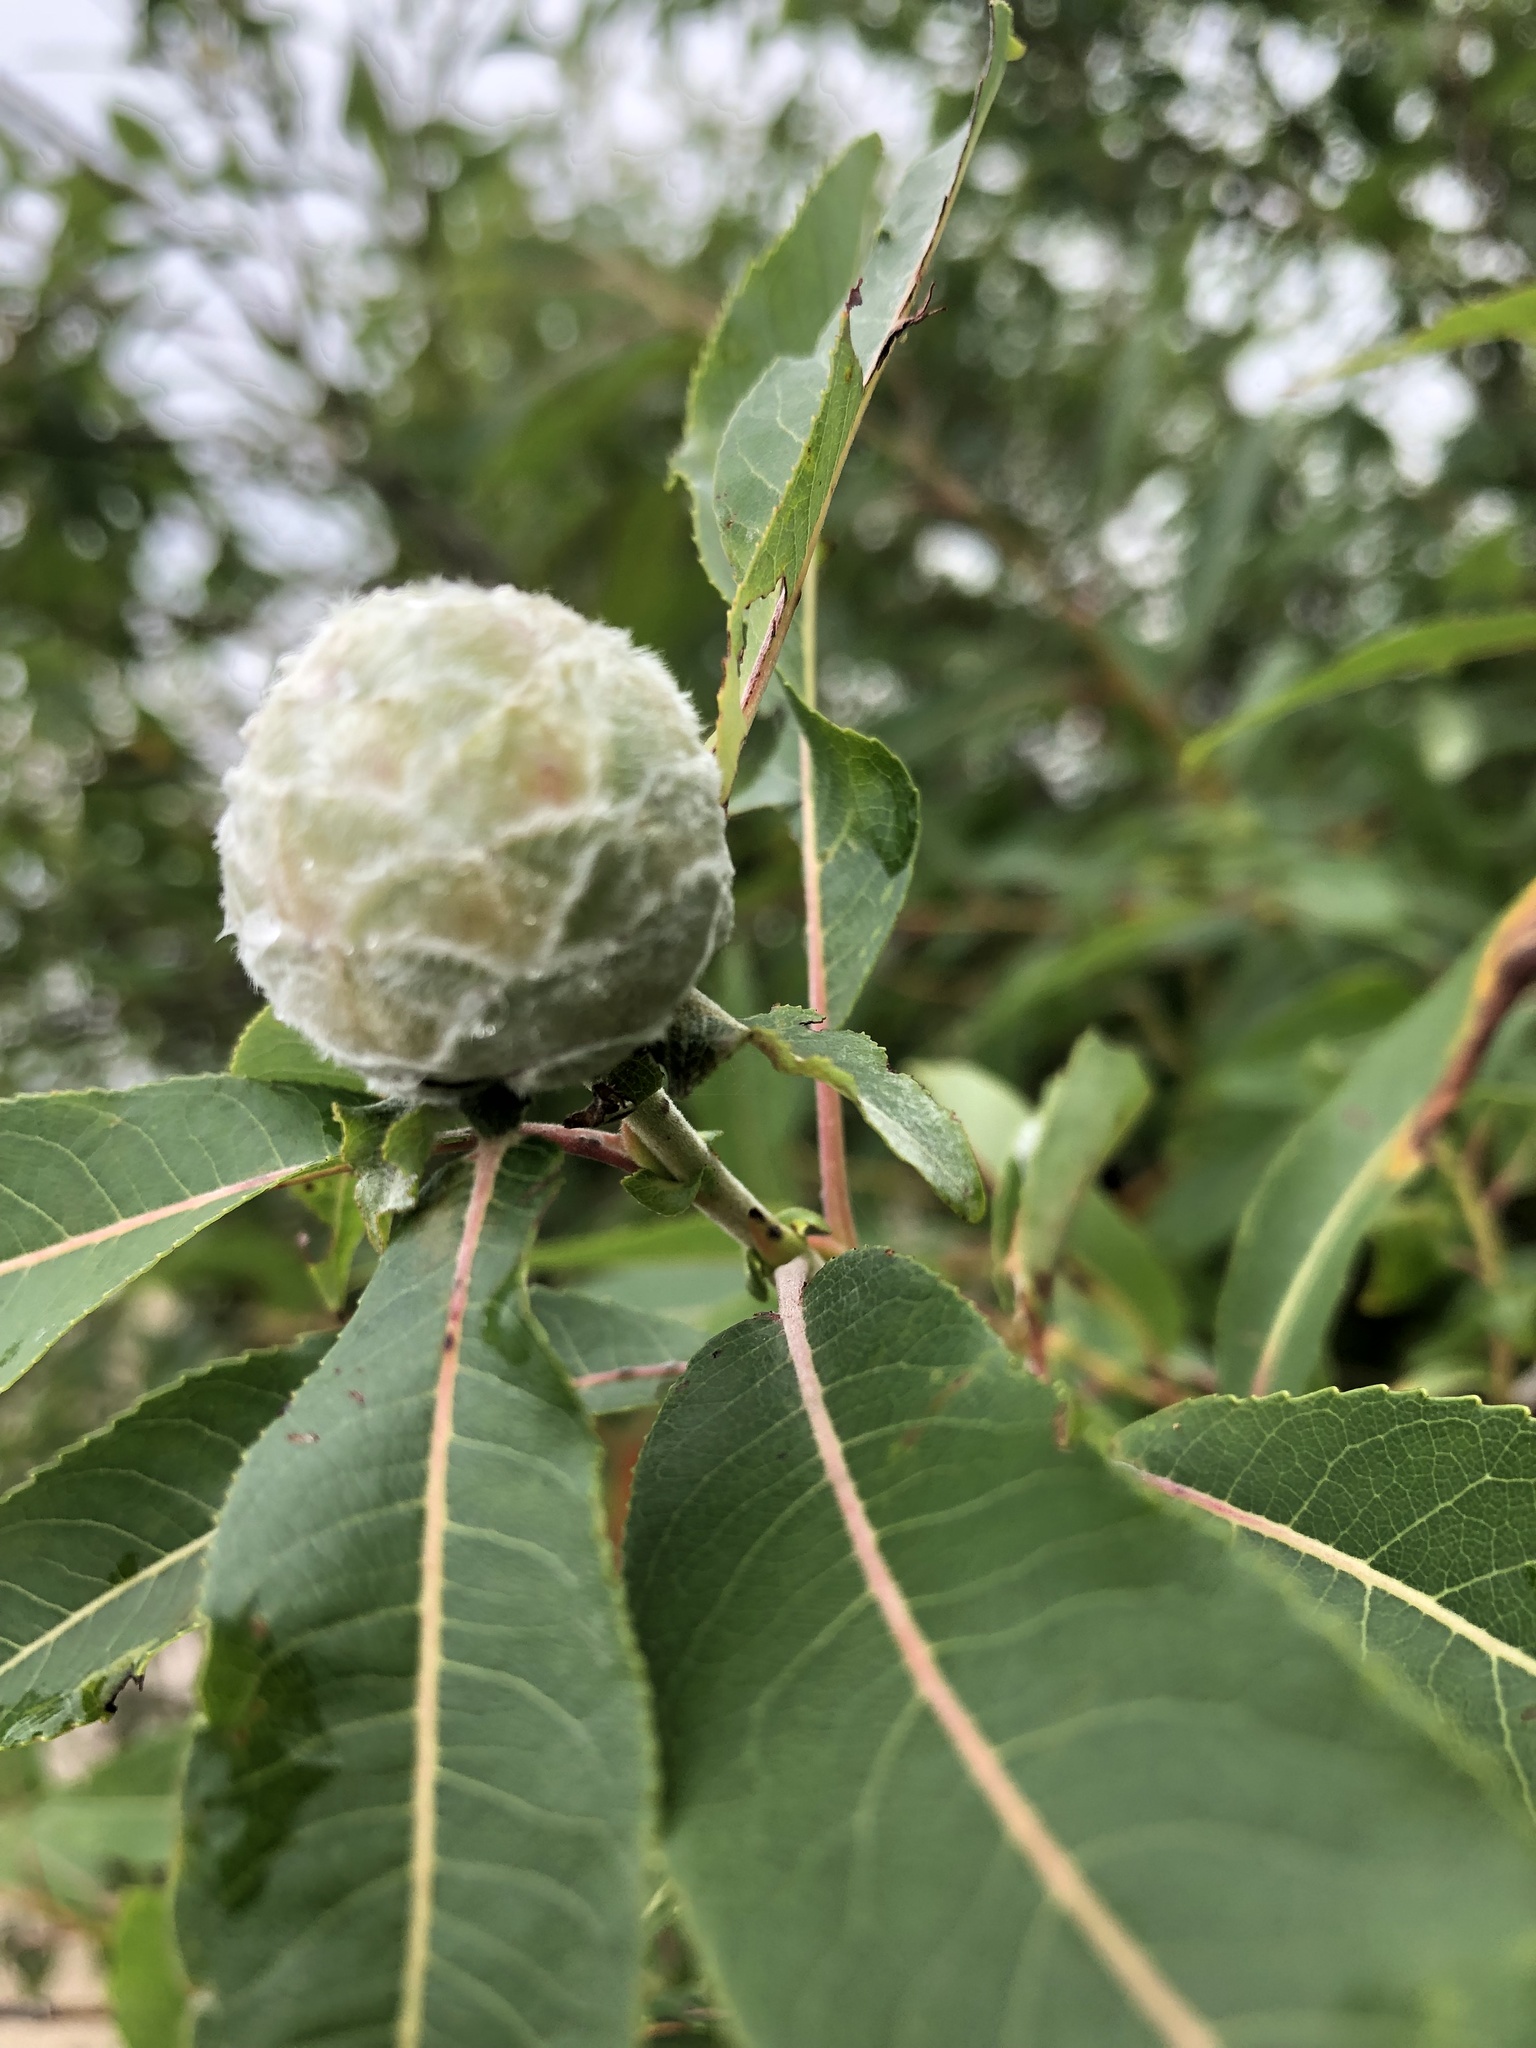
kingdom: Animalia
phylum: Arthropoda
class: Insecta
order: Diptera
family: Cecidomyiidae
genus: Rabdophaga
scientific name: Rabdophaga strobiloides
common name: Willow pinecone gall midge
